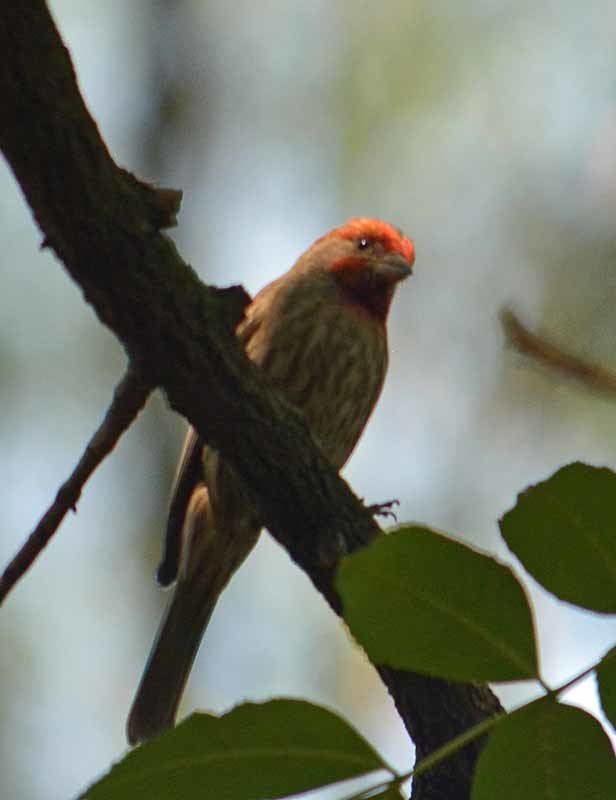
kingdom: Animalia
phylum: Chordata
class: Aves
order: Passeriformes
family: Fringillidae
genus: Haemorhous
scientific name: Haemorhous mexicanus
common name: House finch
